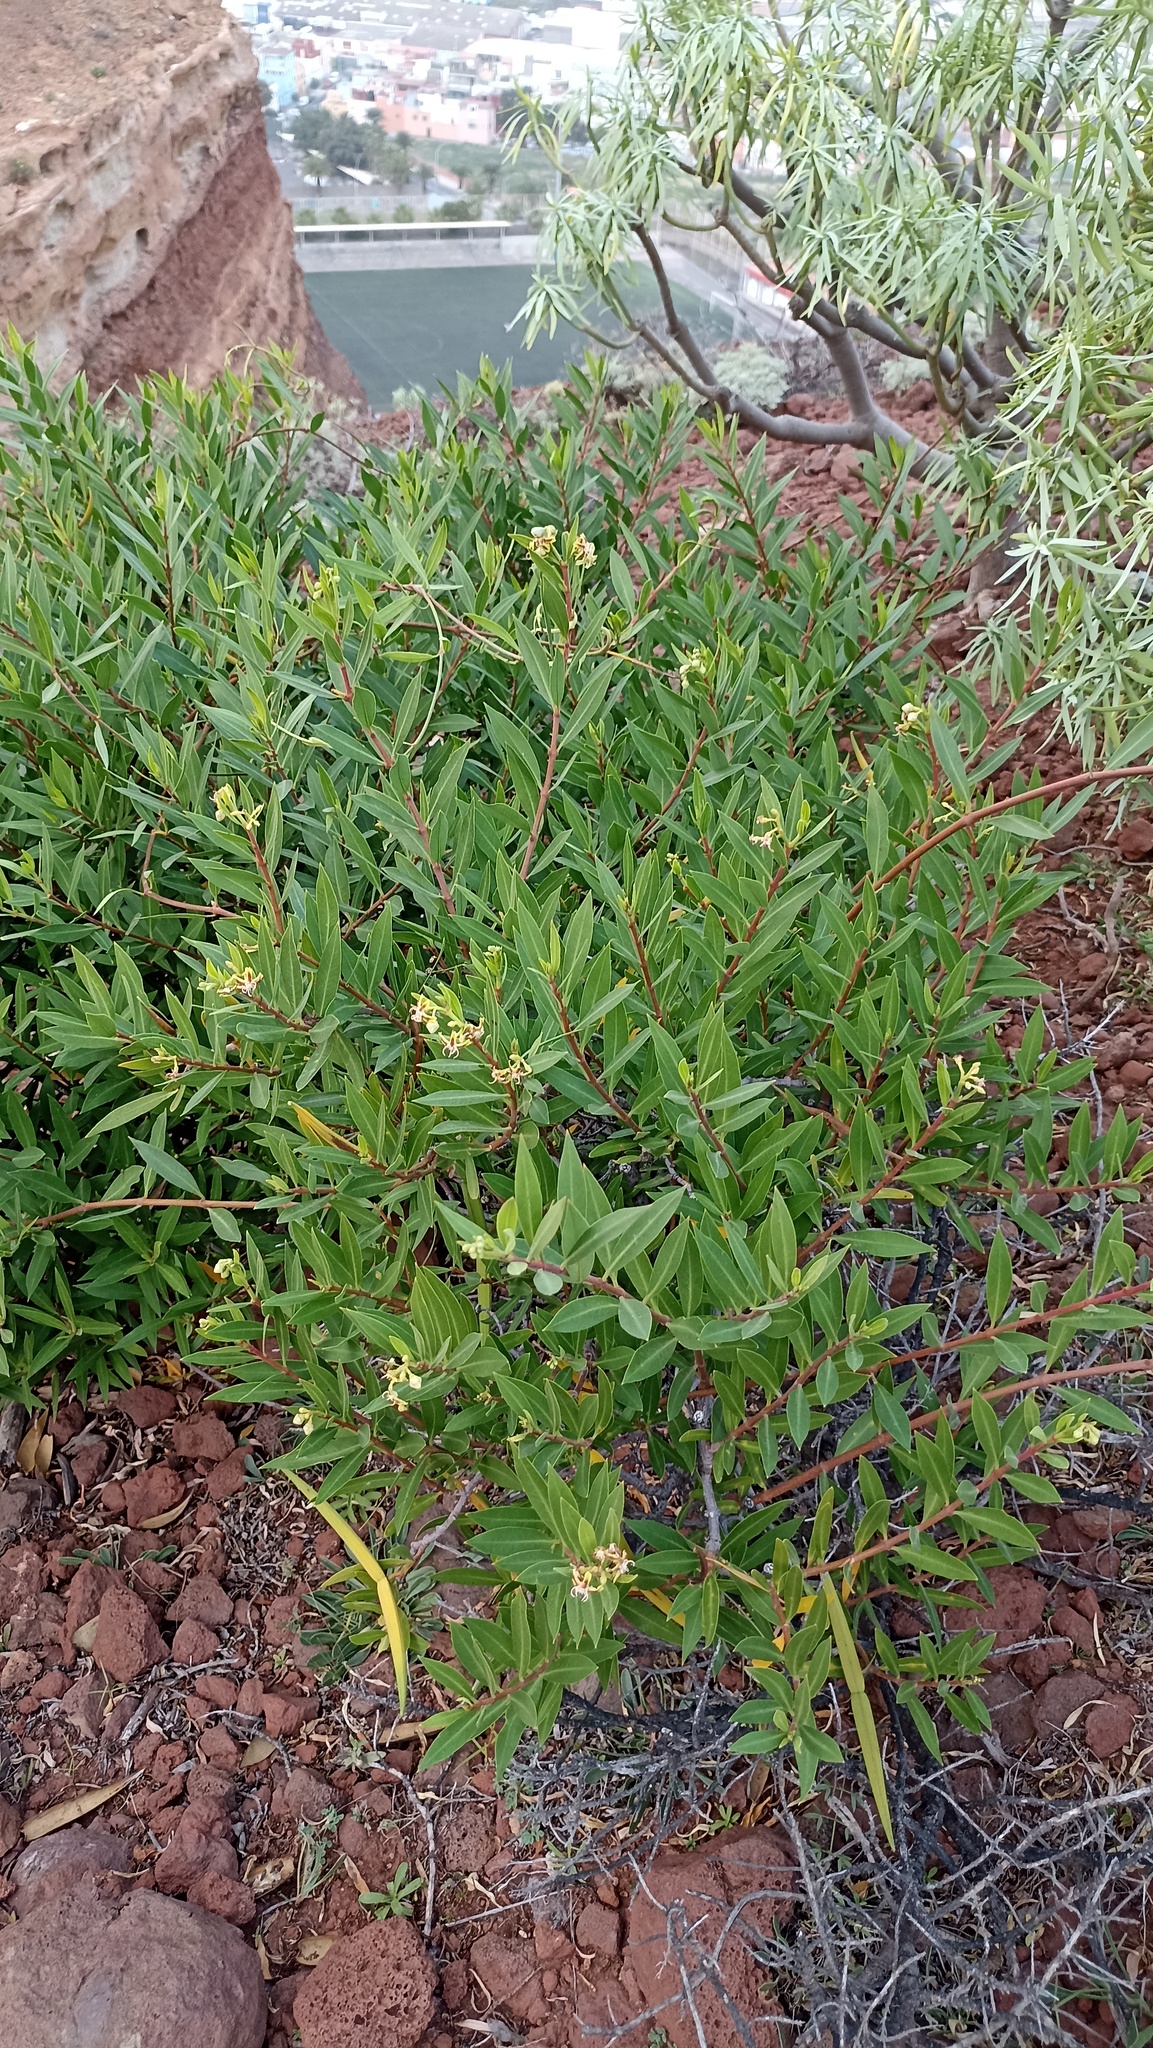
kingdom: Plantae
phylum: Tracheophyta
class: Magnoliopsida
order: Gentianales
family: Apocynaceae
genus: Periploca
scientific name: Periploca laevigata
